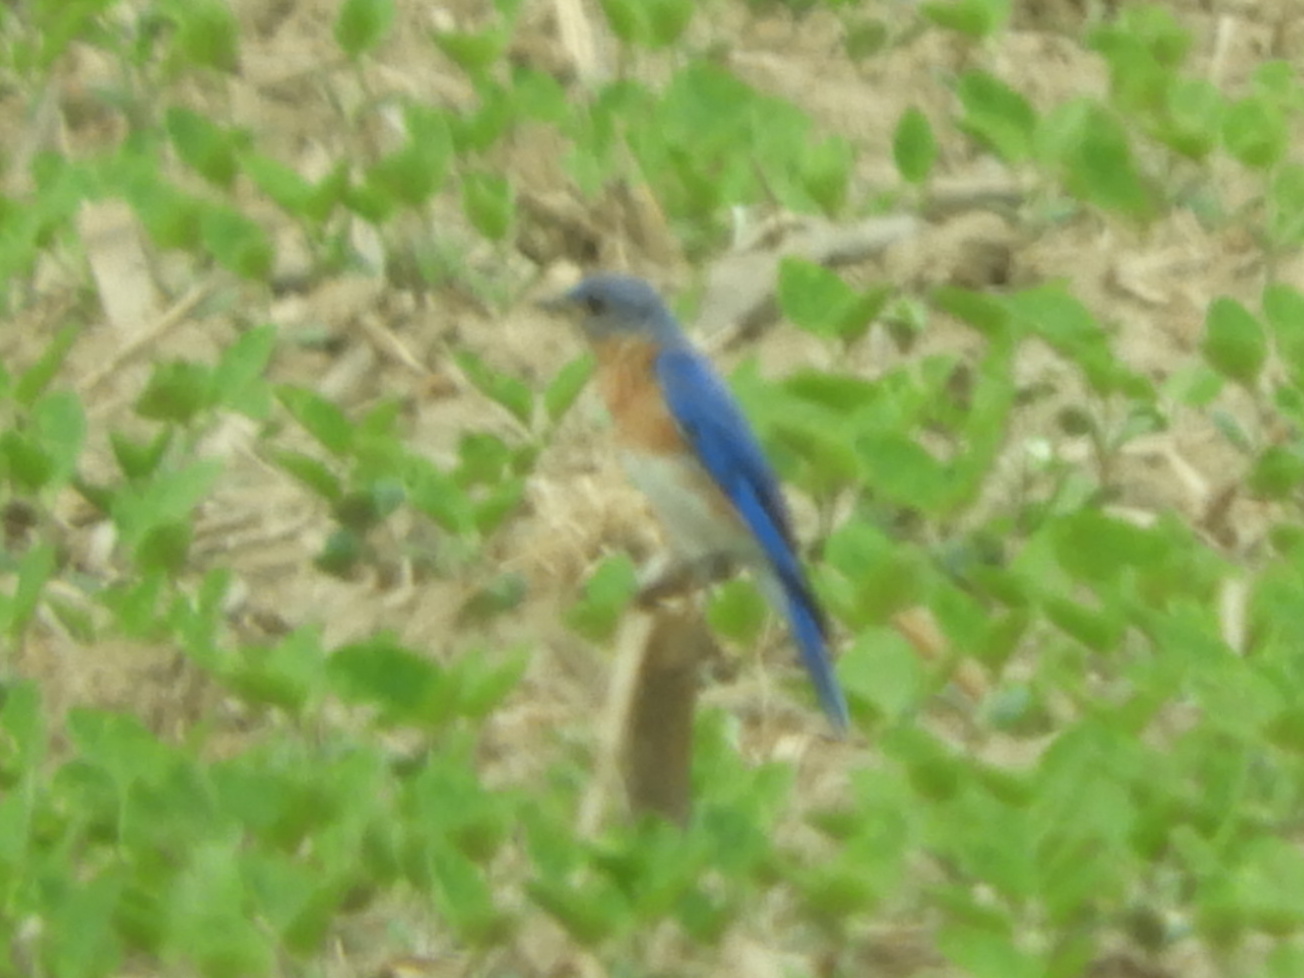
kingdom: Animalia
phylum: Chordata
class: Aves
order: Passeriformes
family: Turdidae
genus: Sialia
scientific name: Sialia sialis
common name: Eastern bluebird
